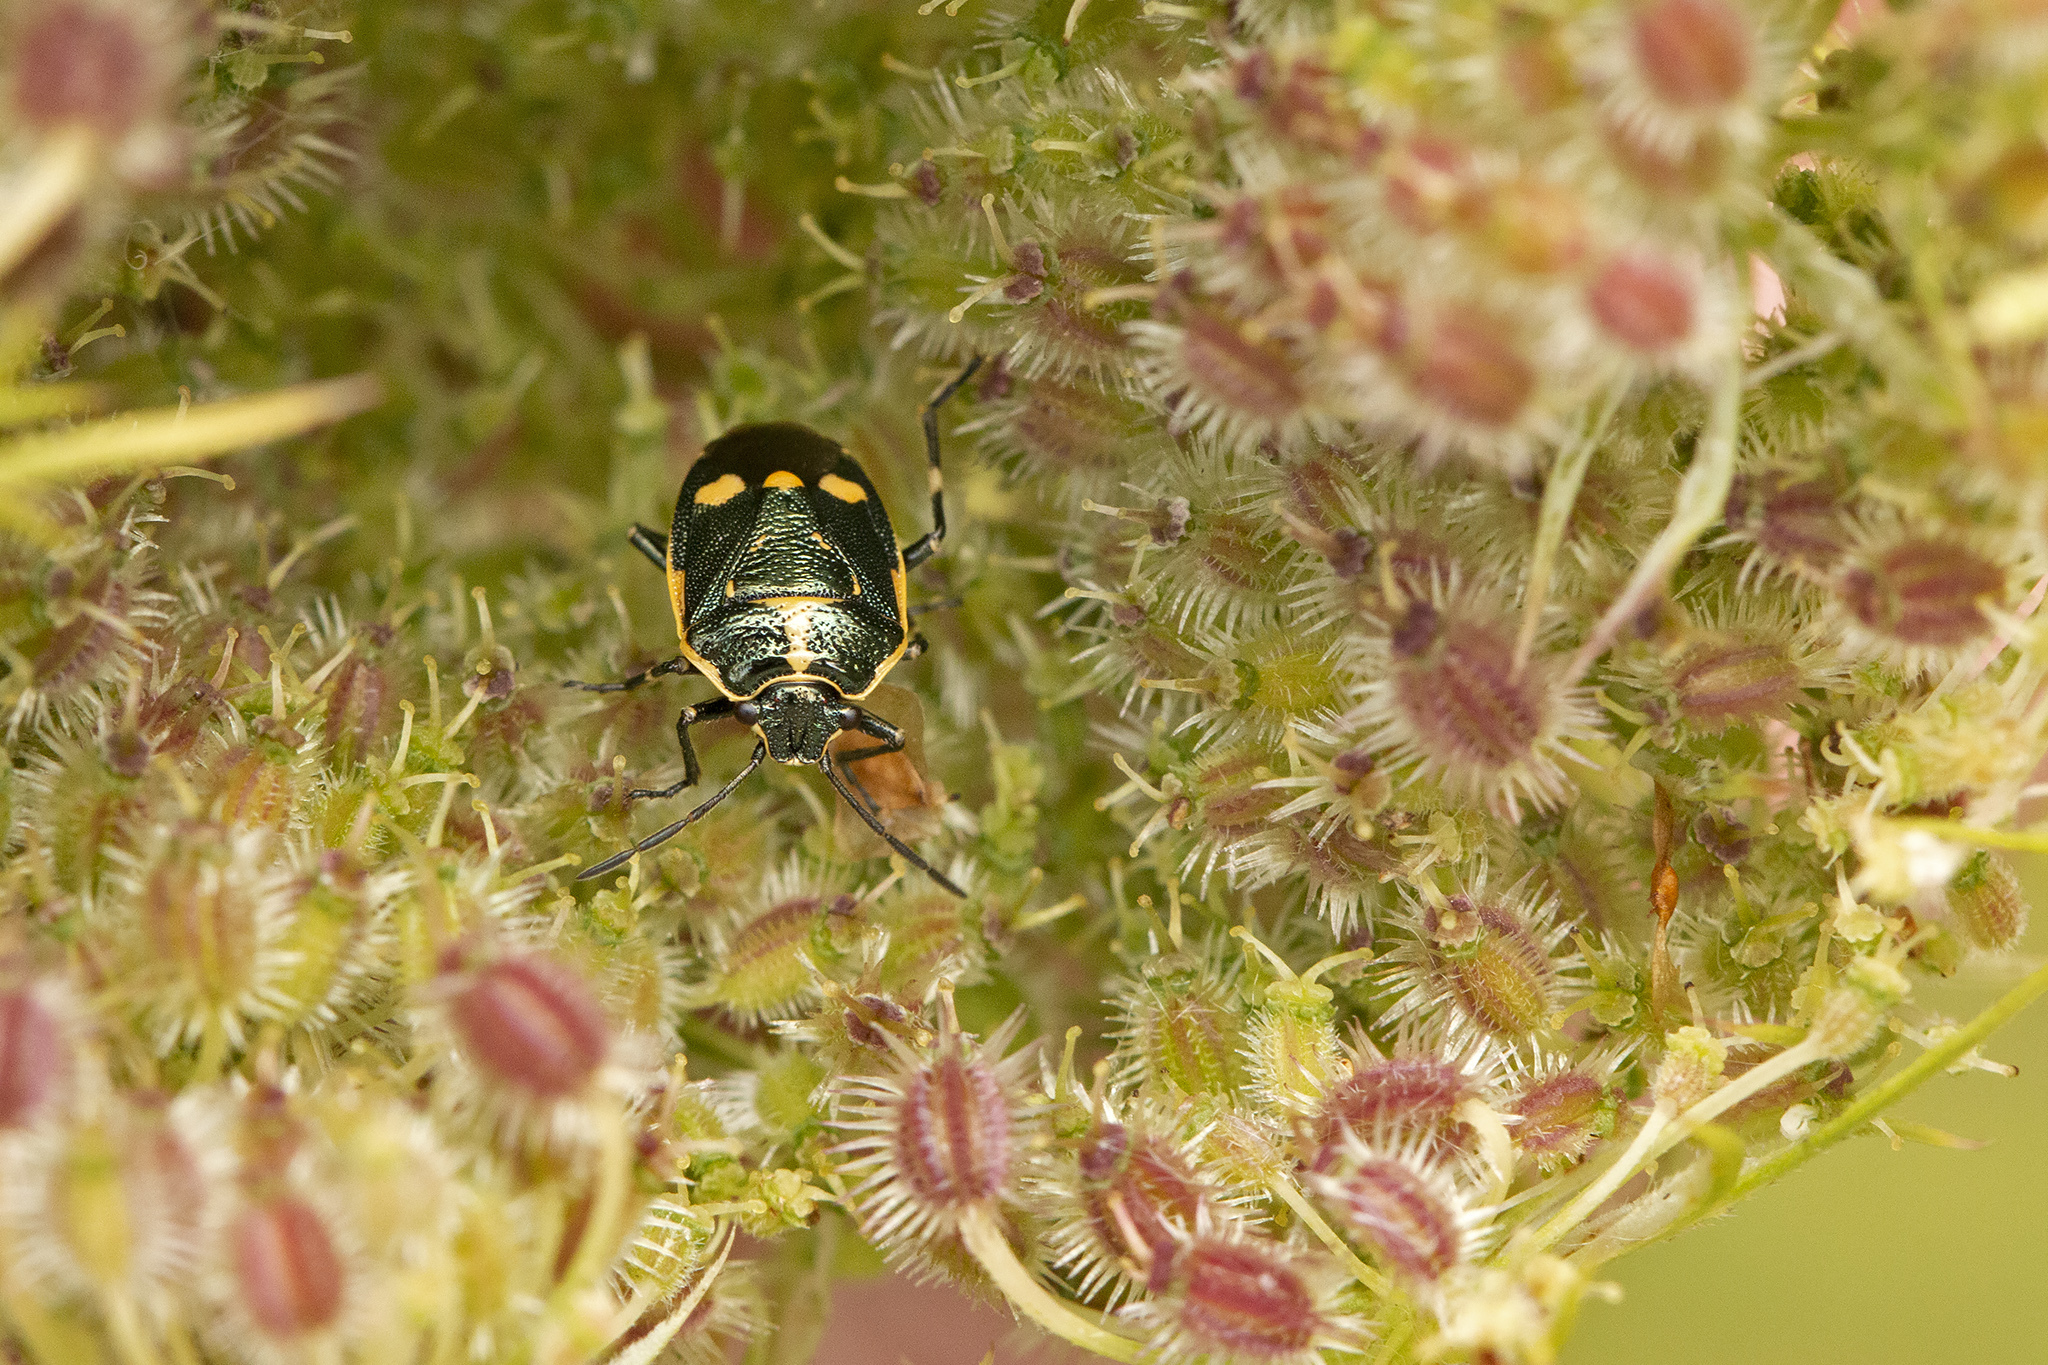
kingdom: Animalia
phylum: Arthropoda
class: Insecta
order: Hemiptera
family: Pentatomidae
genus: Eurydema
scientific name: Eurydema oleracea
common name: Cabbage bug
